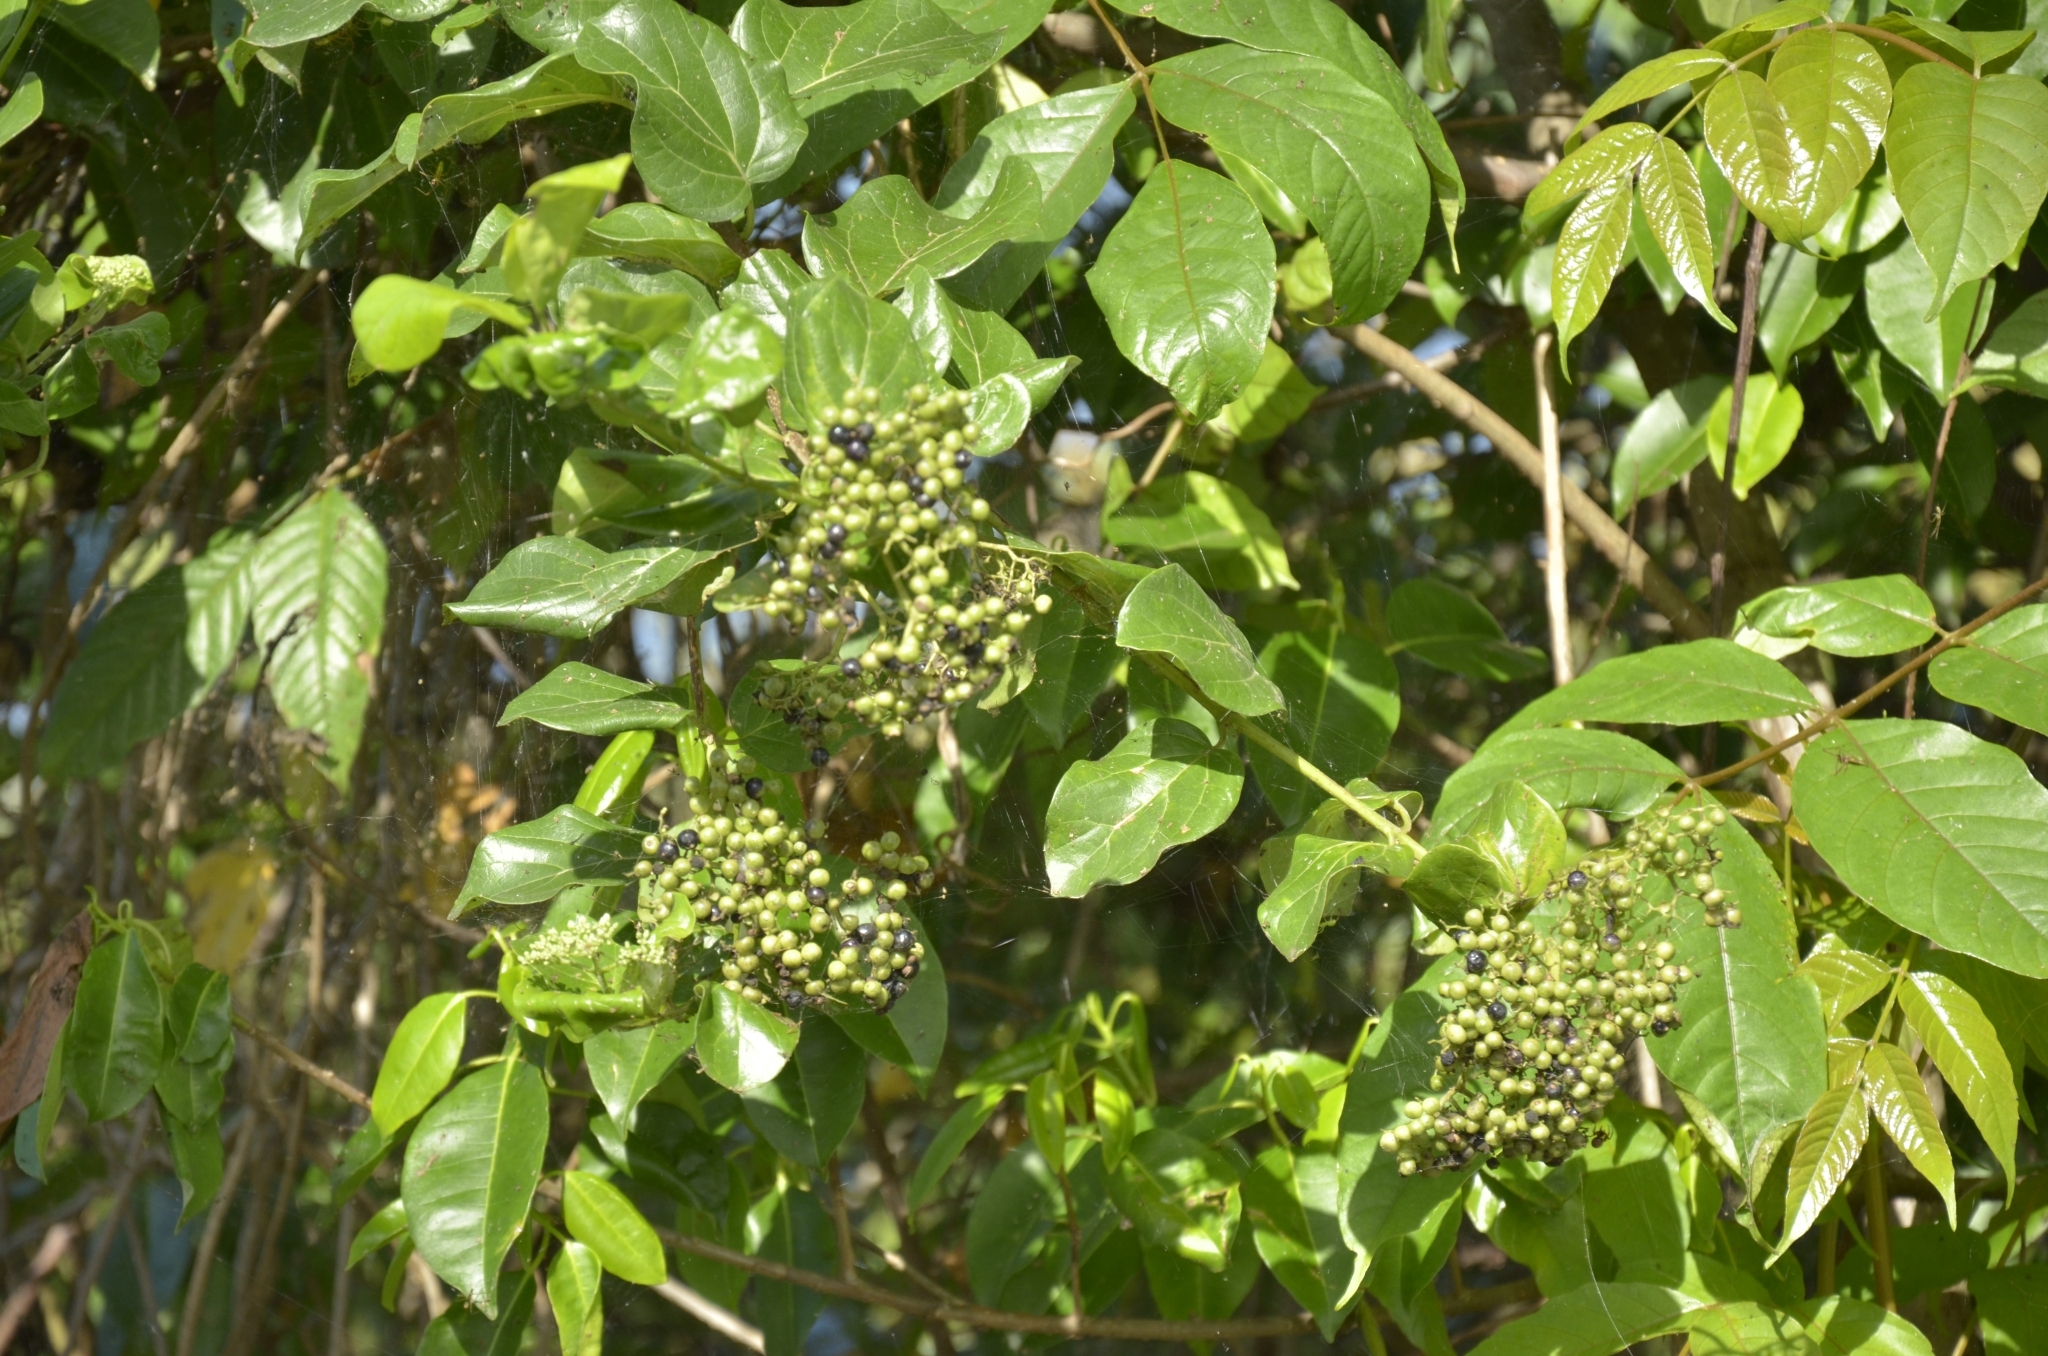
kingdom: Plantae
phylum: Tracheophyta
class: Magnoliopsida
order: Lamiales
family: Lamiaceae
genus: Premna
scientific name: Premna serratifolia
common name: Bastard guelder
